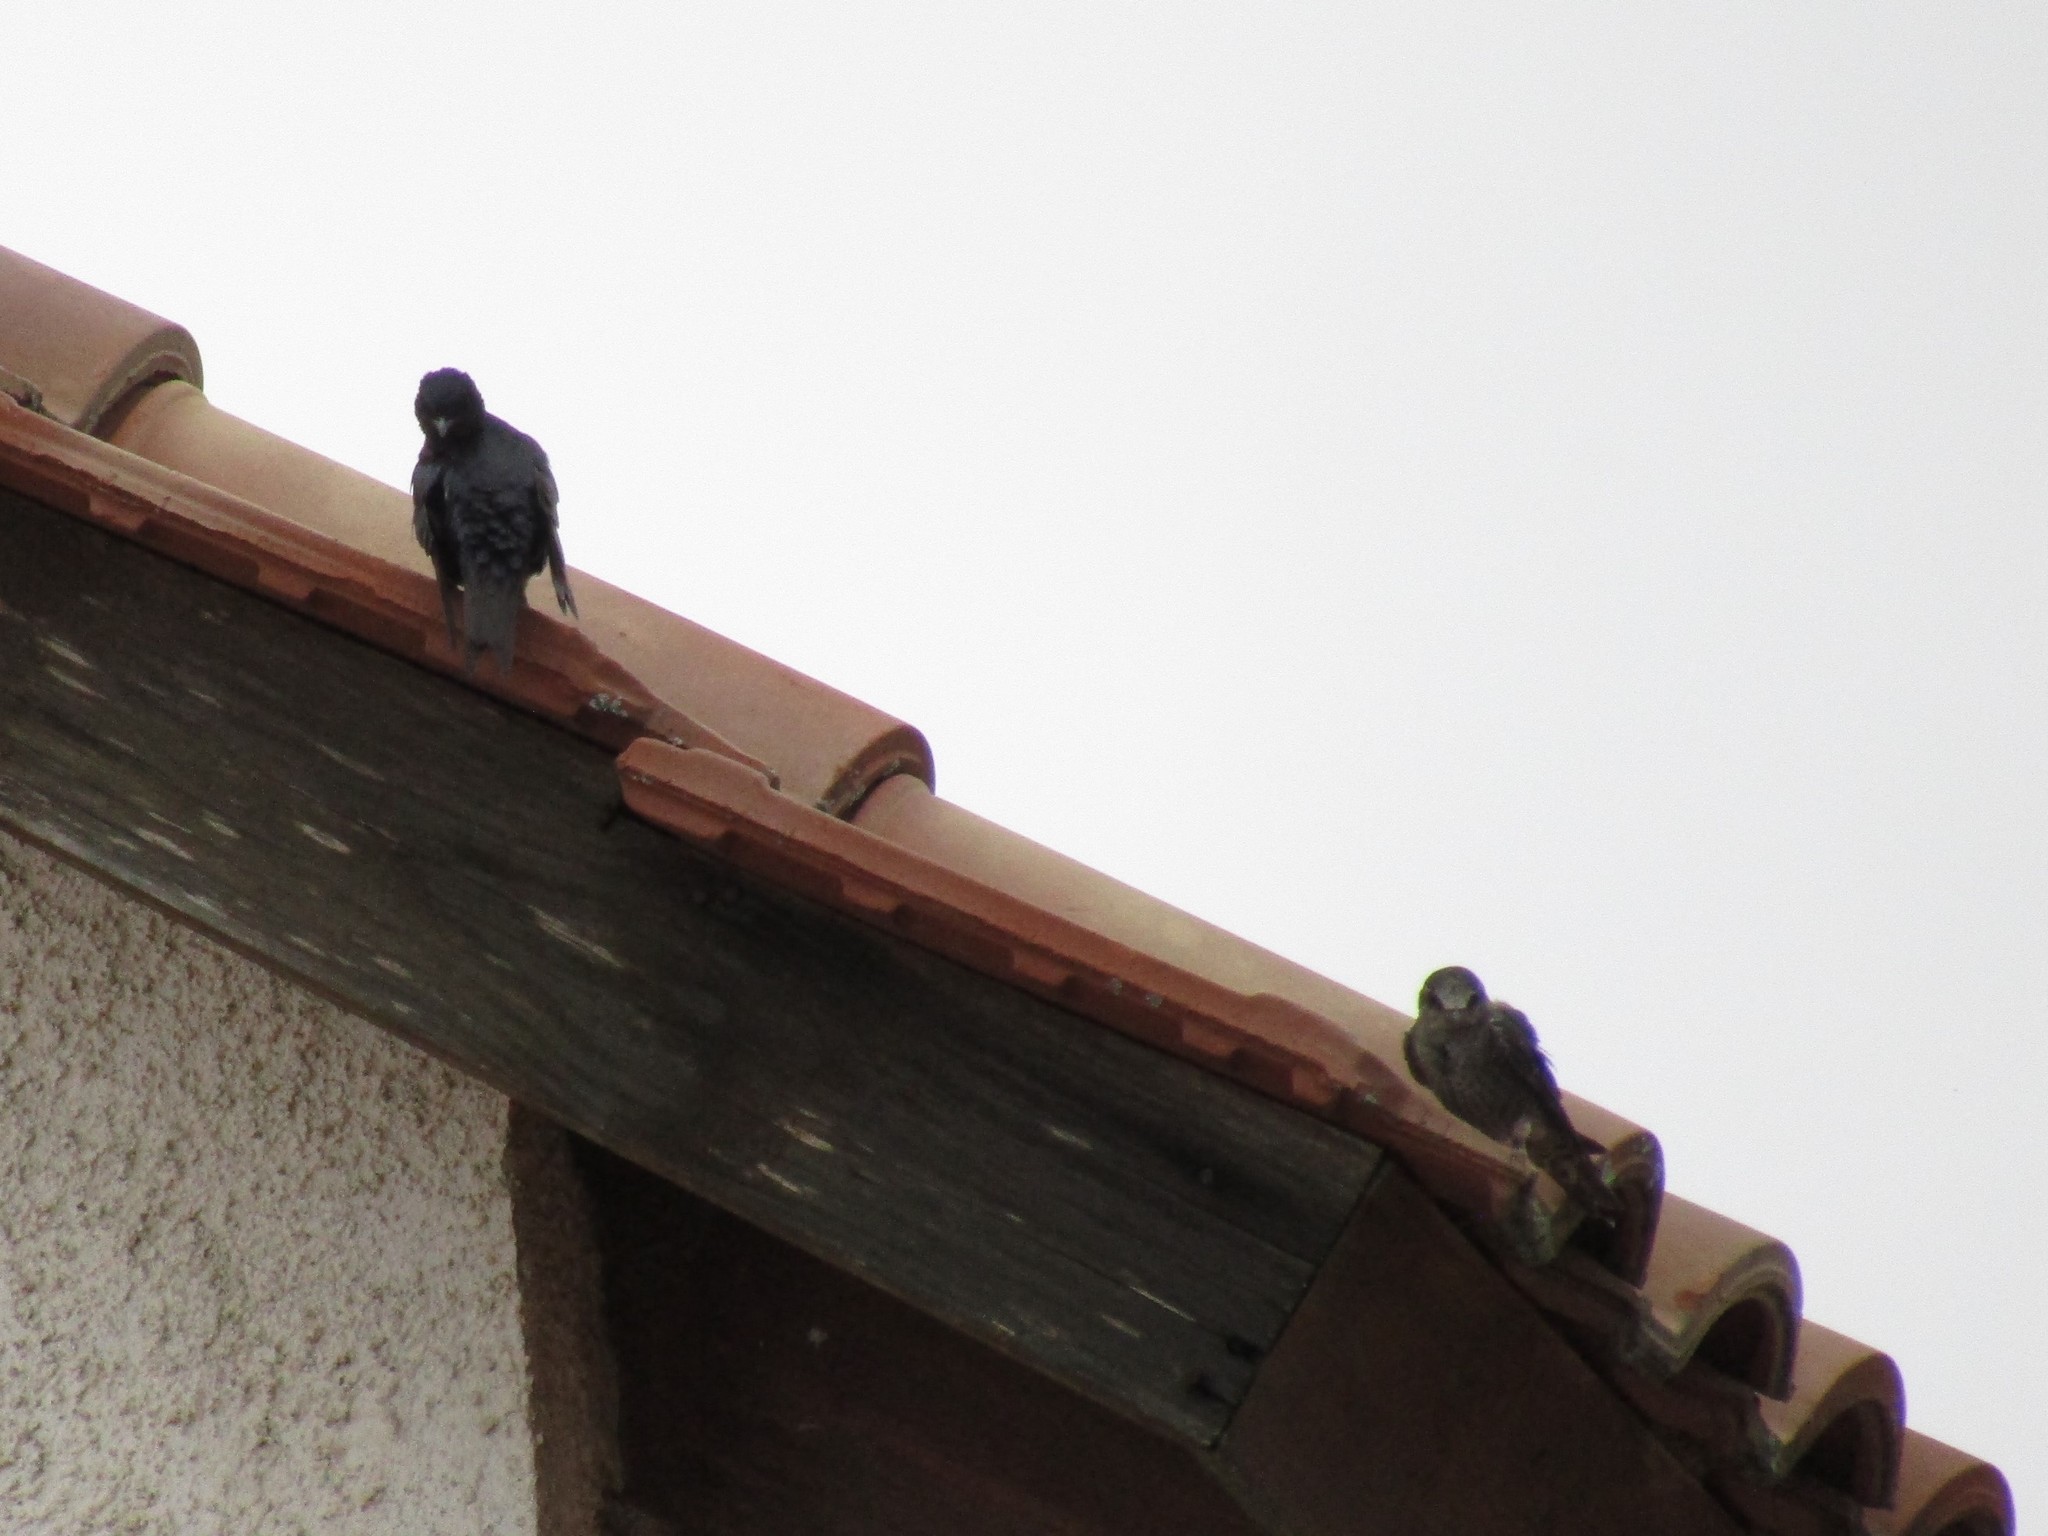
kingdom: Animalia
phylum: Chordata
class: Aves
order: Passeriformes
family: Hirundinidae
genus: Progne
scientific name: Progne elegans
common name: Southern martin
